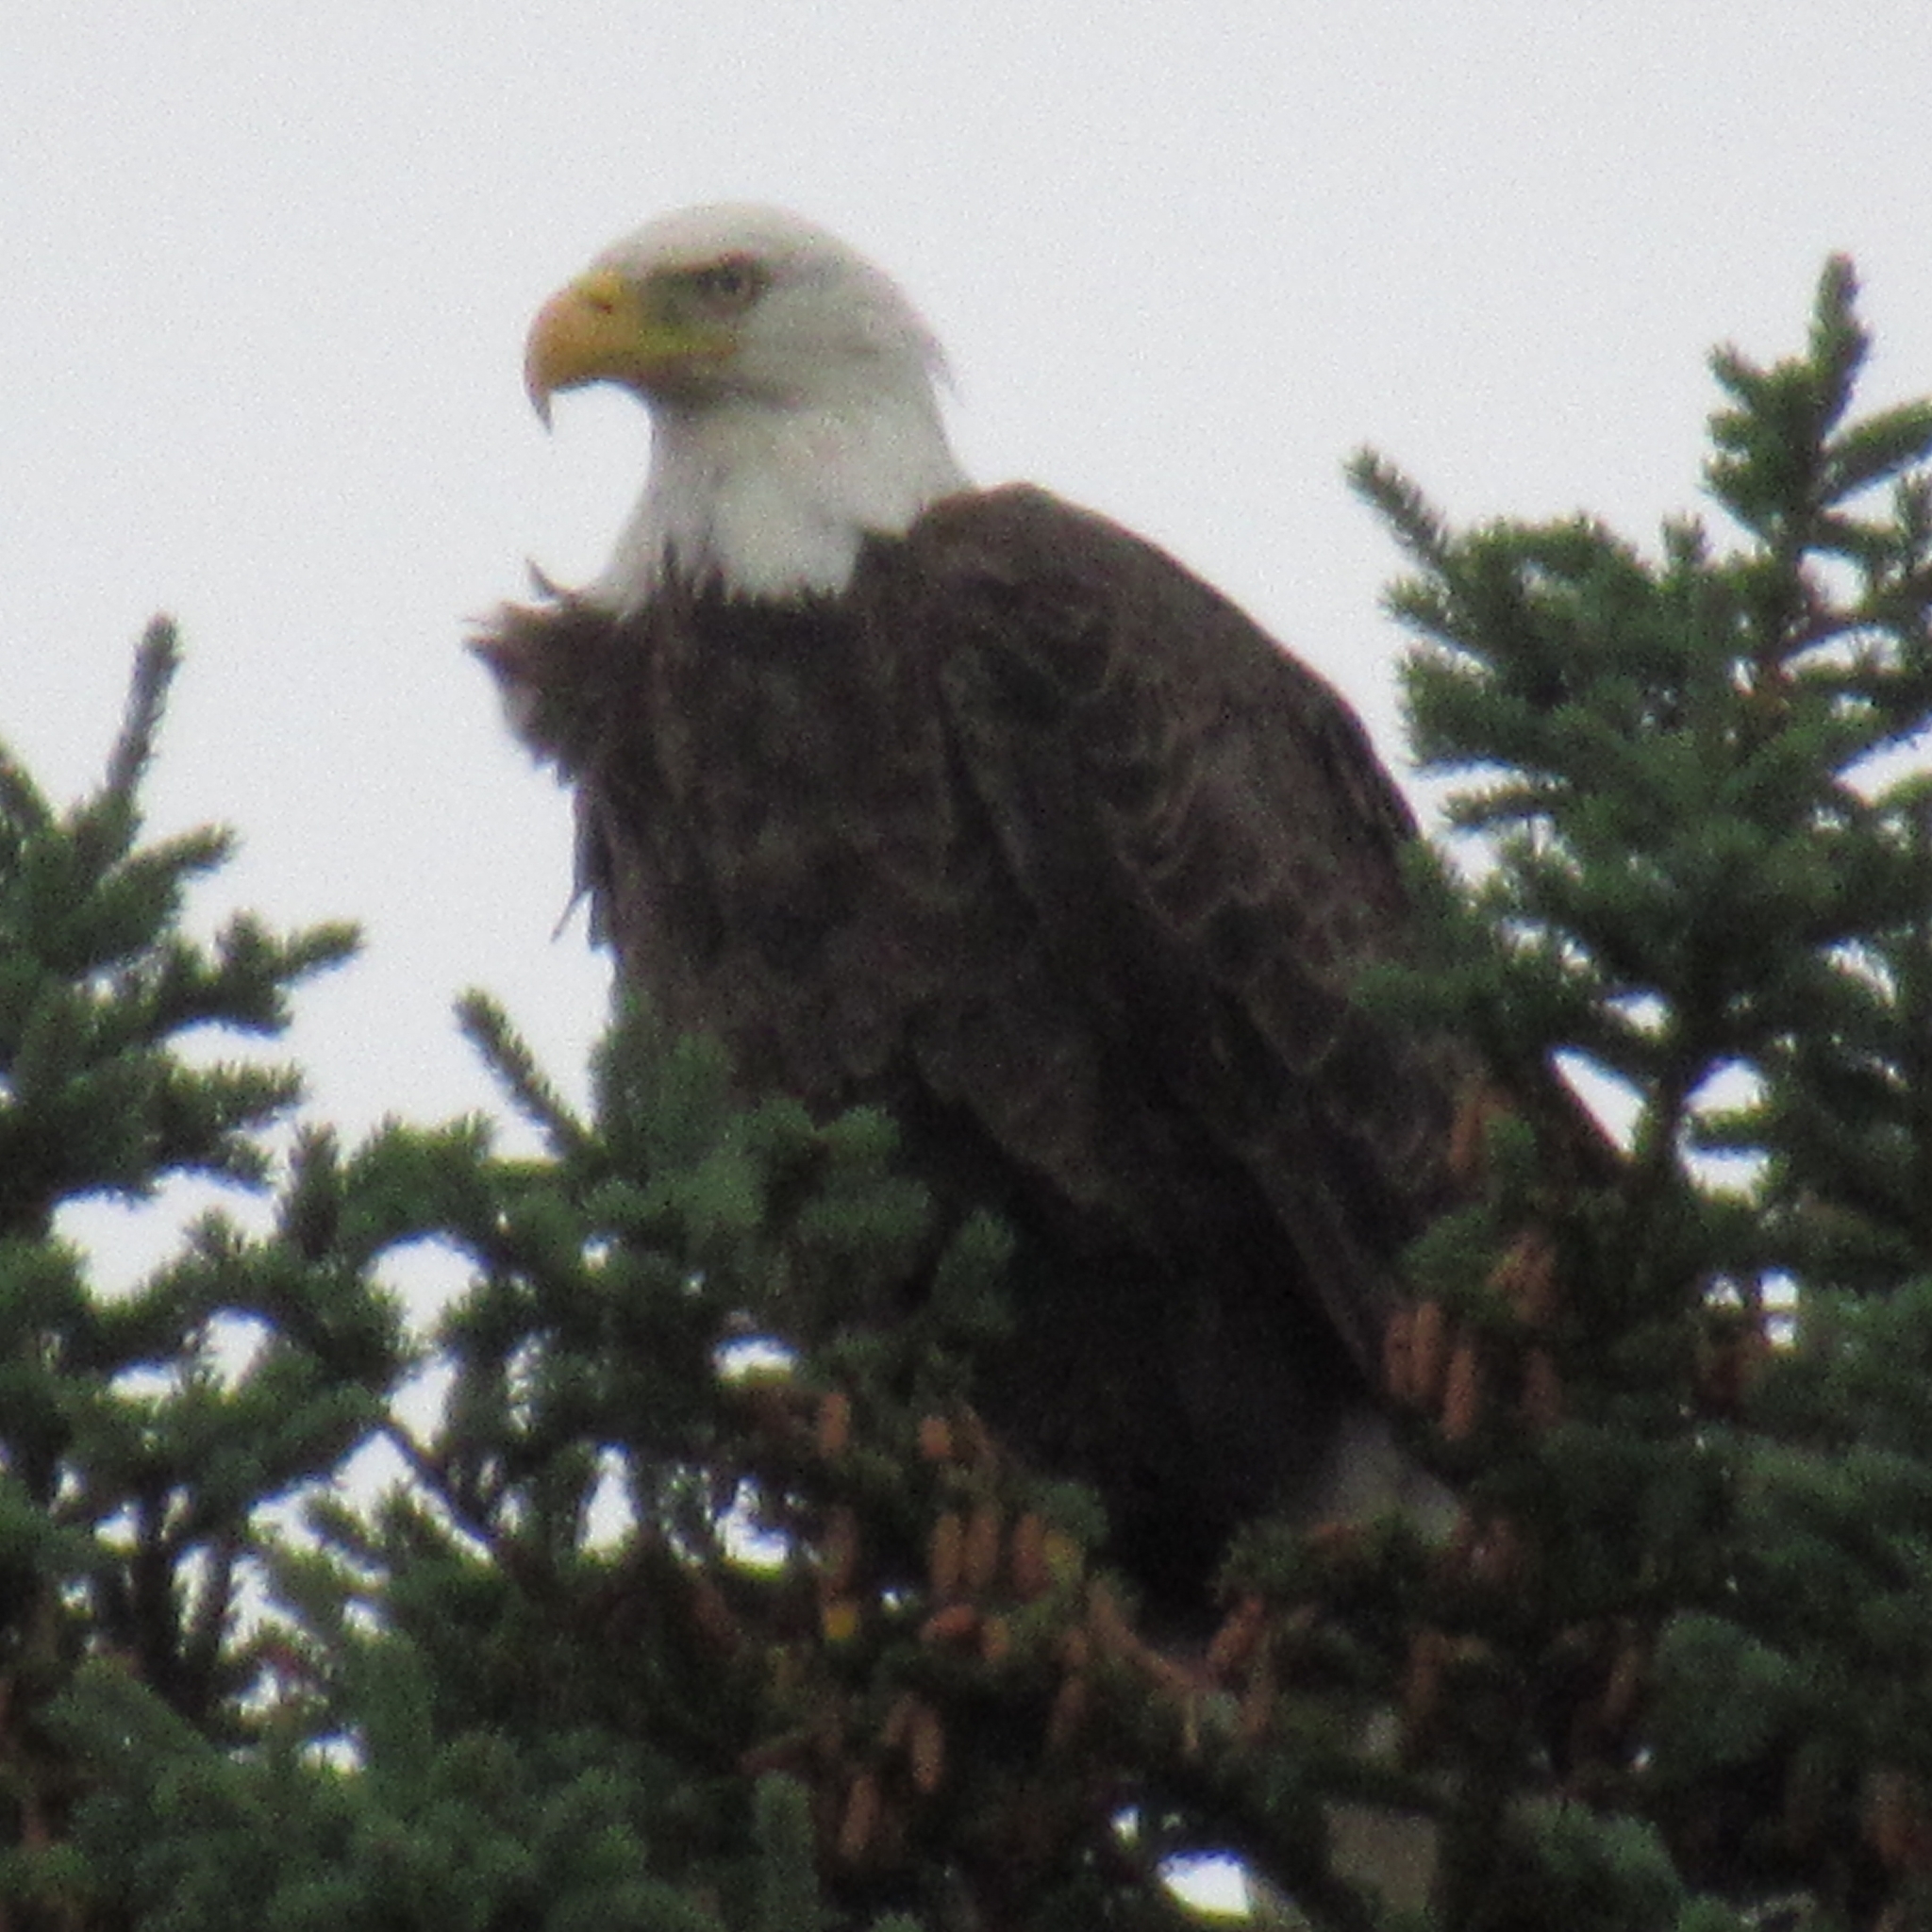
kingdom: Animalia
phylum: Chordata
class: Aves
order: Accipitriformes
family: Accipitridae
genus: Haliaeetus
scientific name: Haliaeetus leucocephalus
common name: Bald eagle
